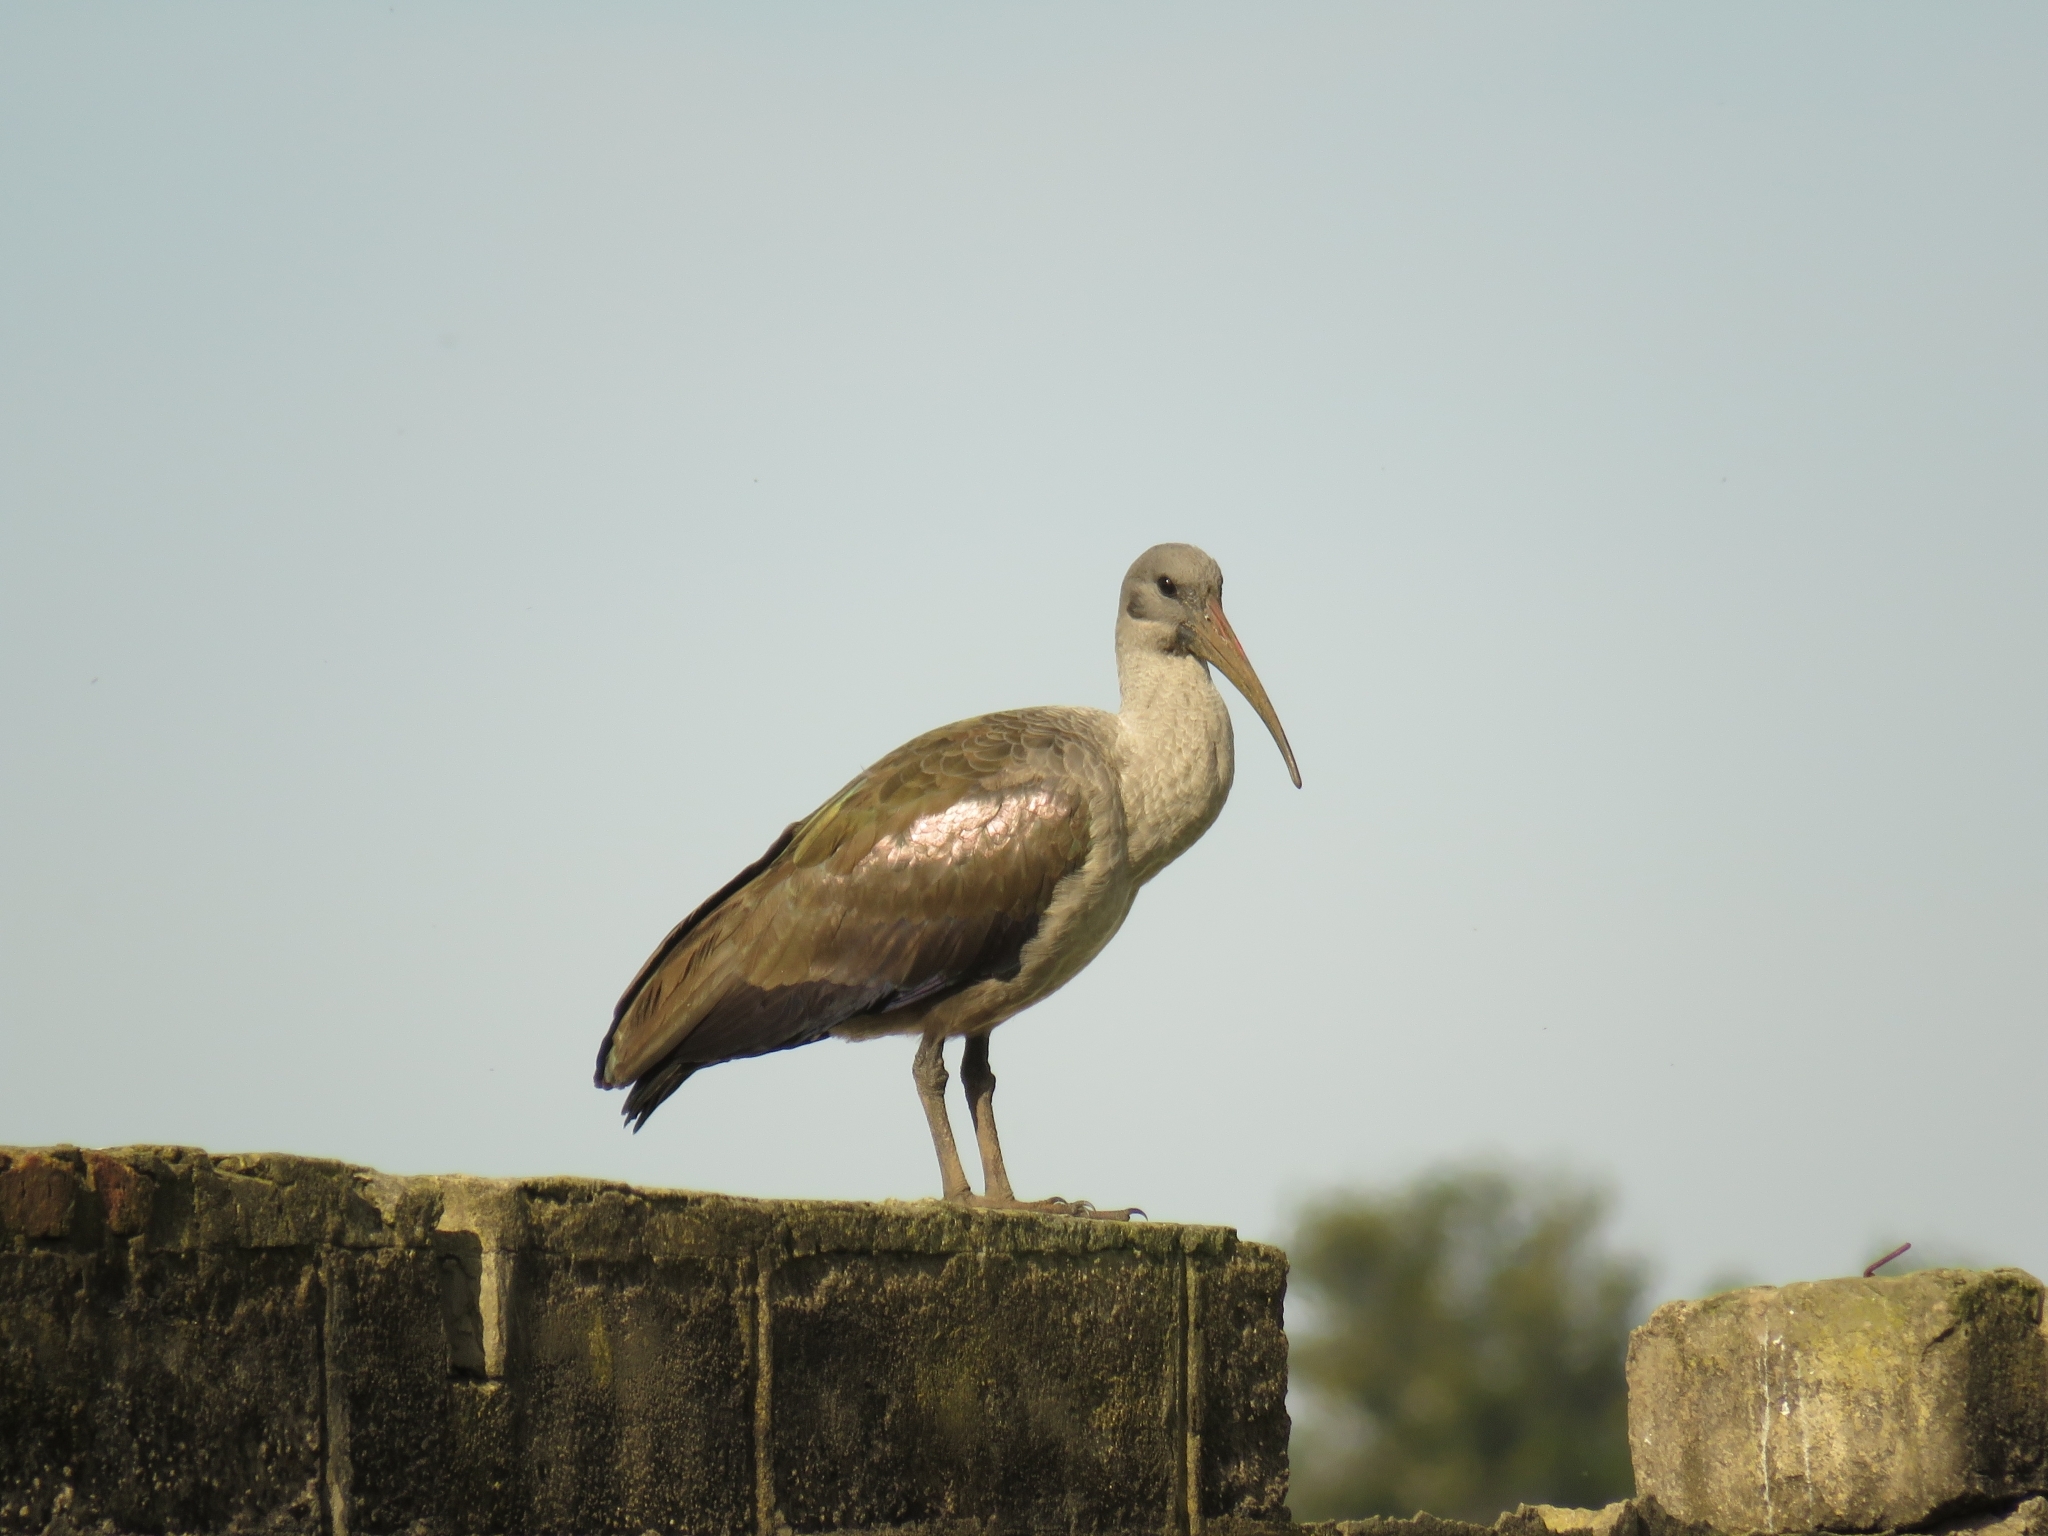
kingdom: Animalia
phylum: Chordata
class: Aves
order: Pelecaniformes
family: Threskiornithidae
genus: Bostrychia
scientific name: Bostrychia hagedash
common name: Hadada ibis
